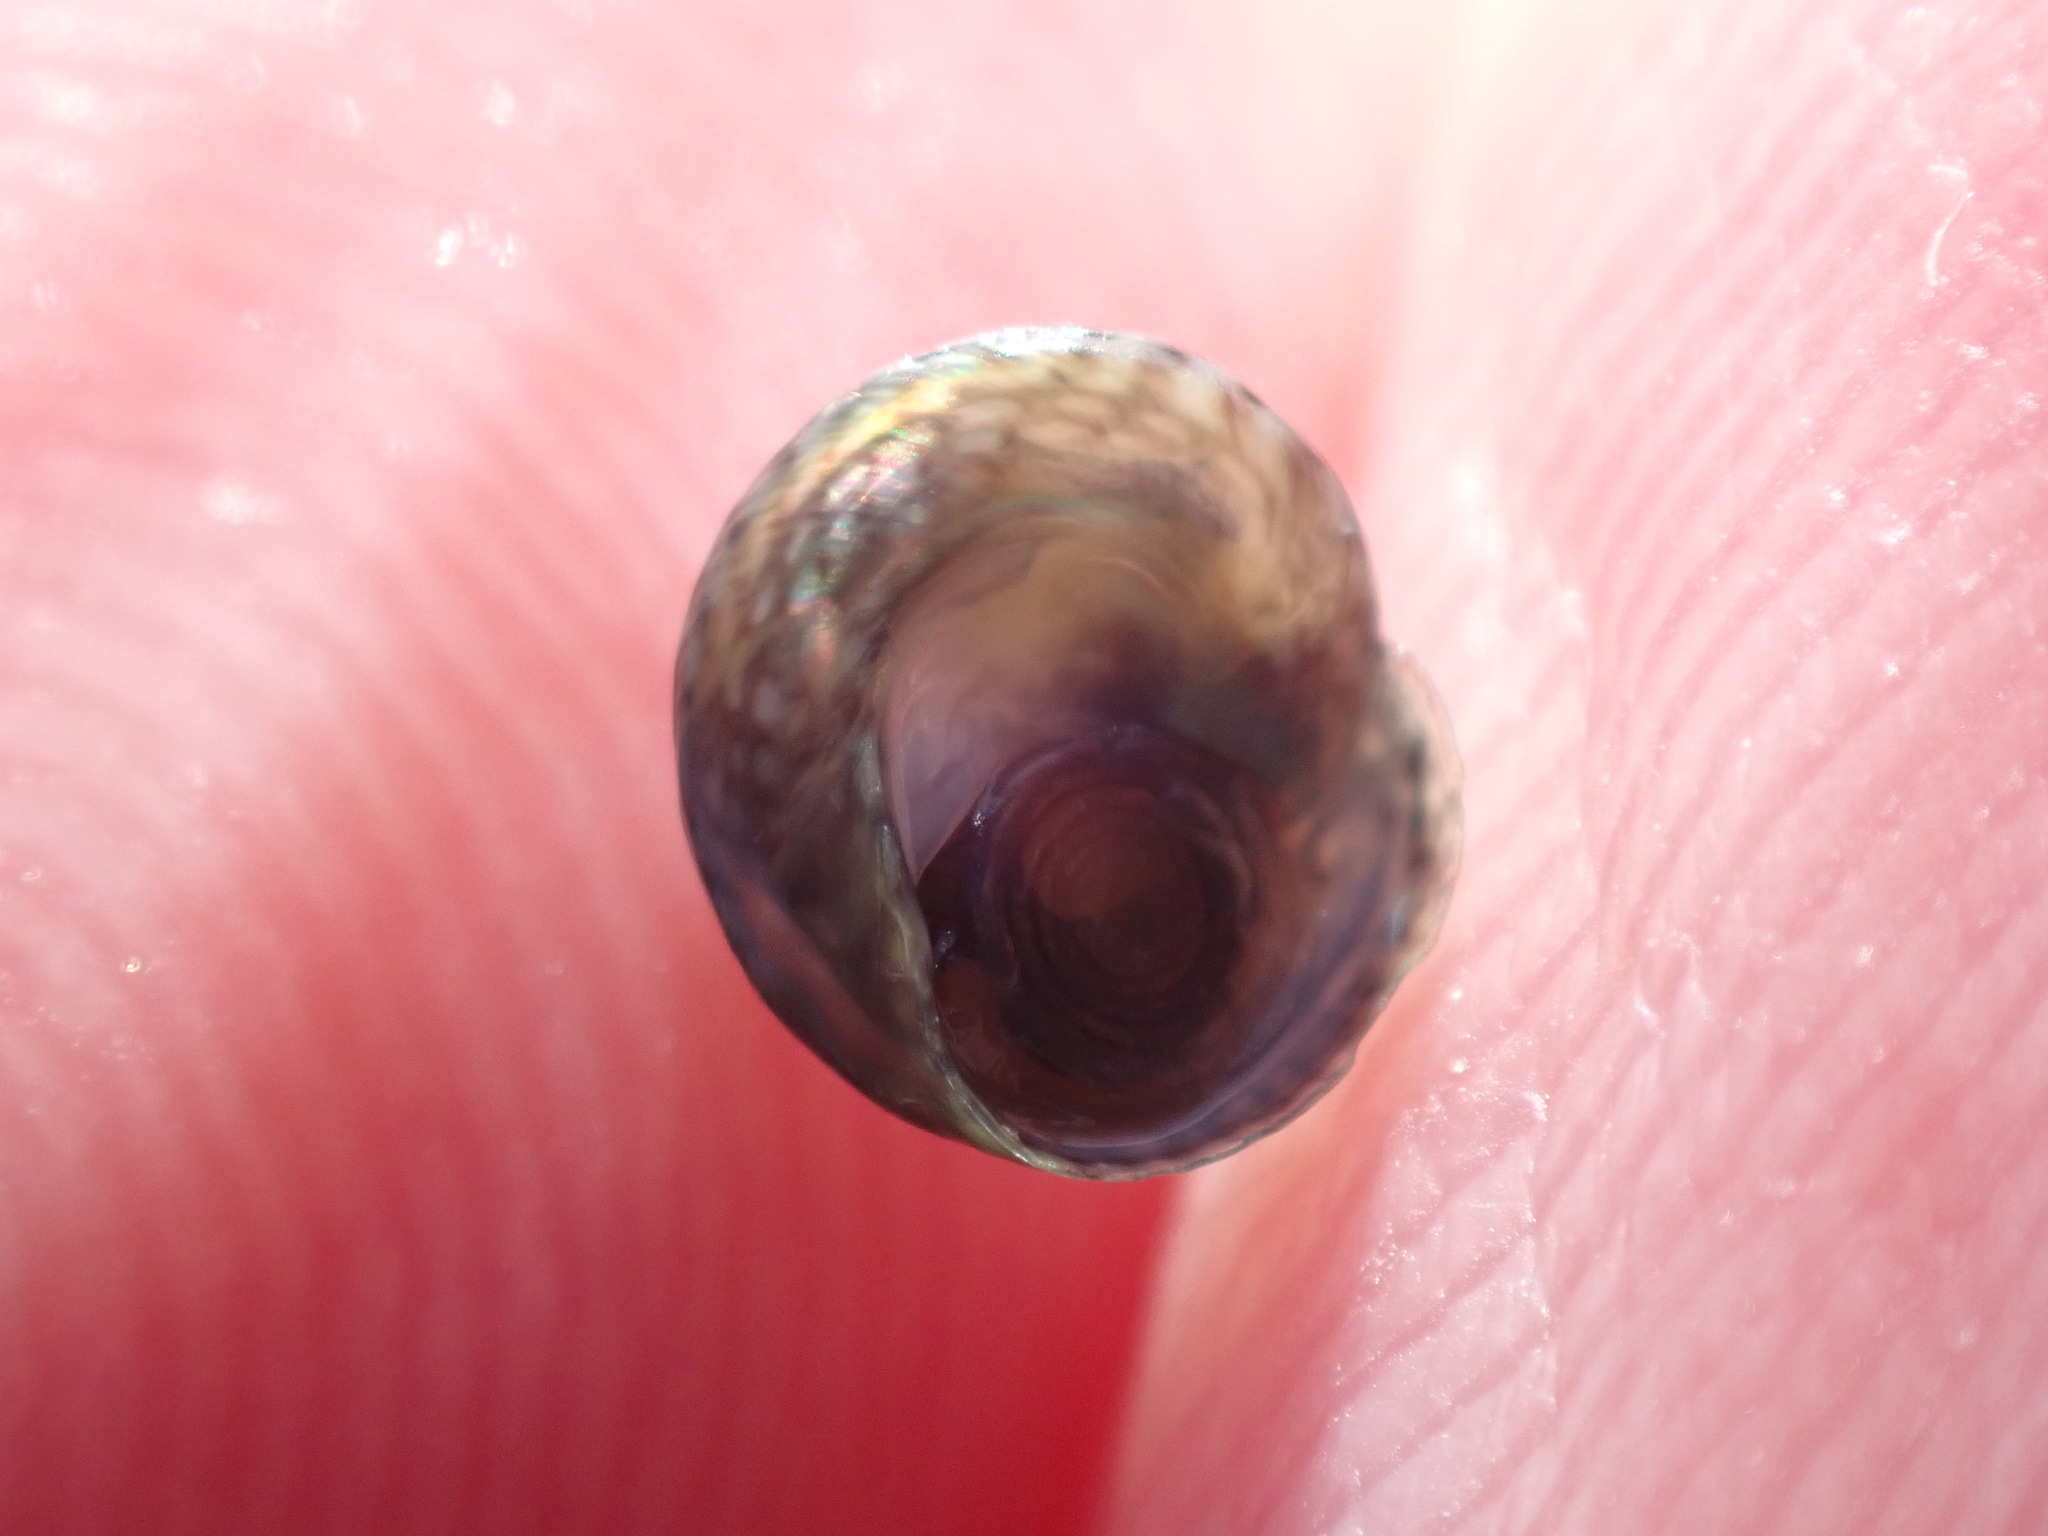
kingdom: Animalia
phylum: Mollusca
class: Gastropoda
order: Trochida
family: Trochidae
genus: Diloma
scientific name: Diloma coracinum
